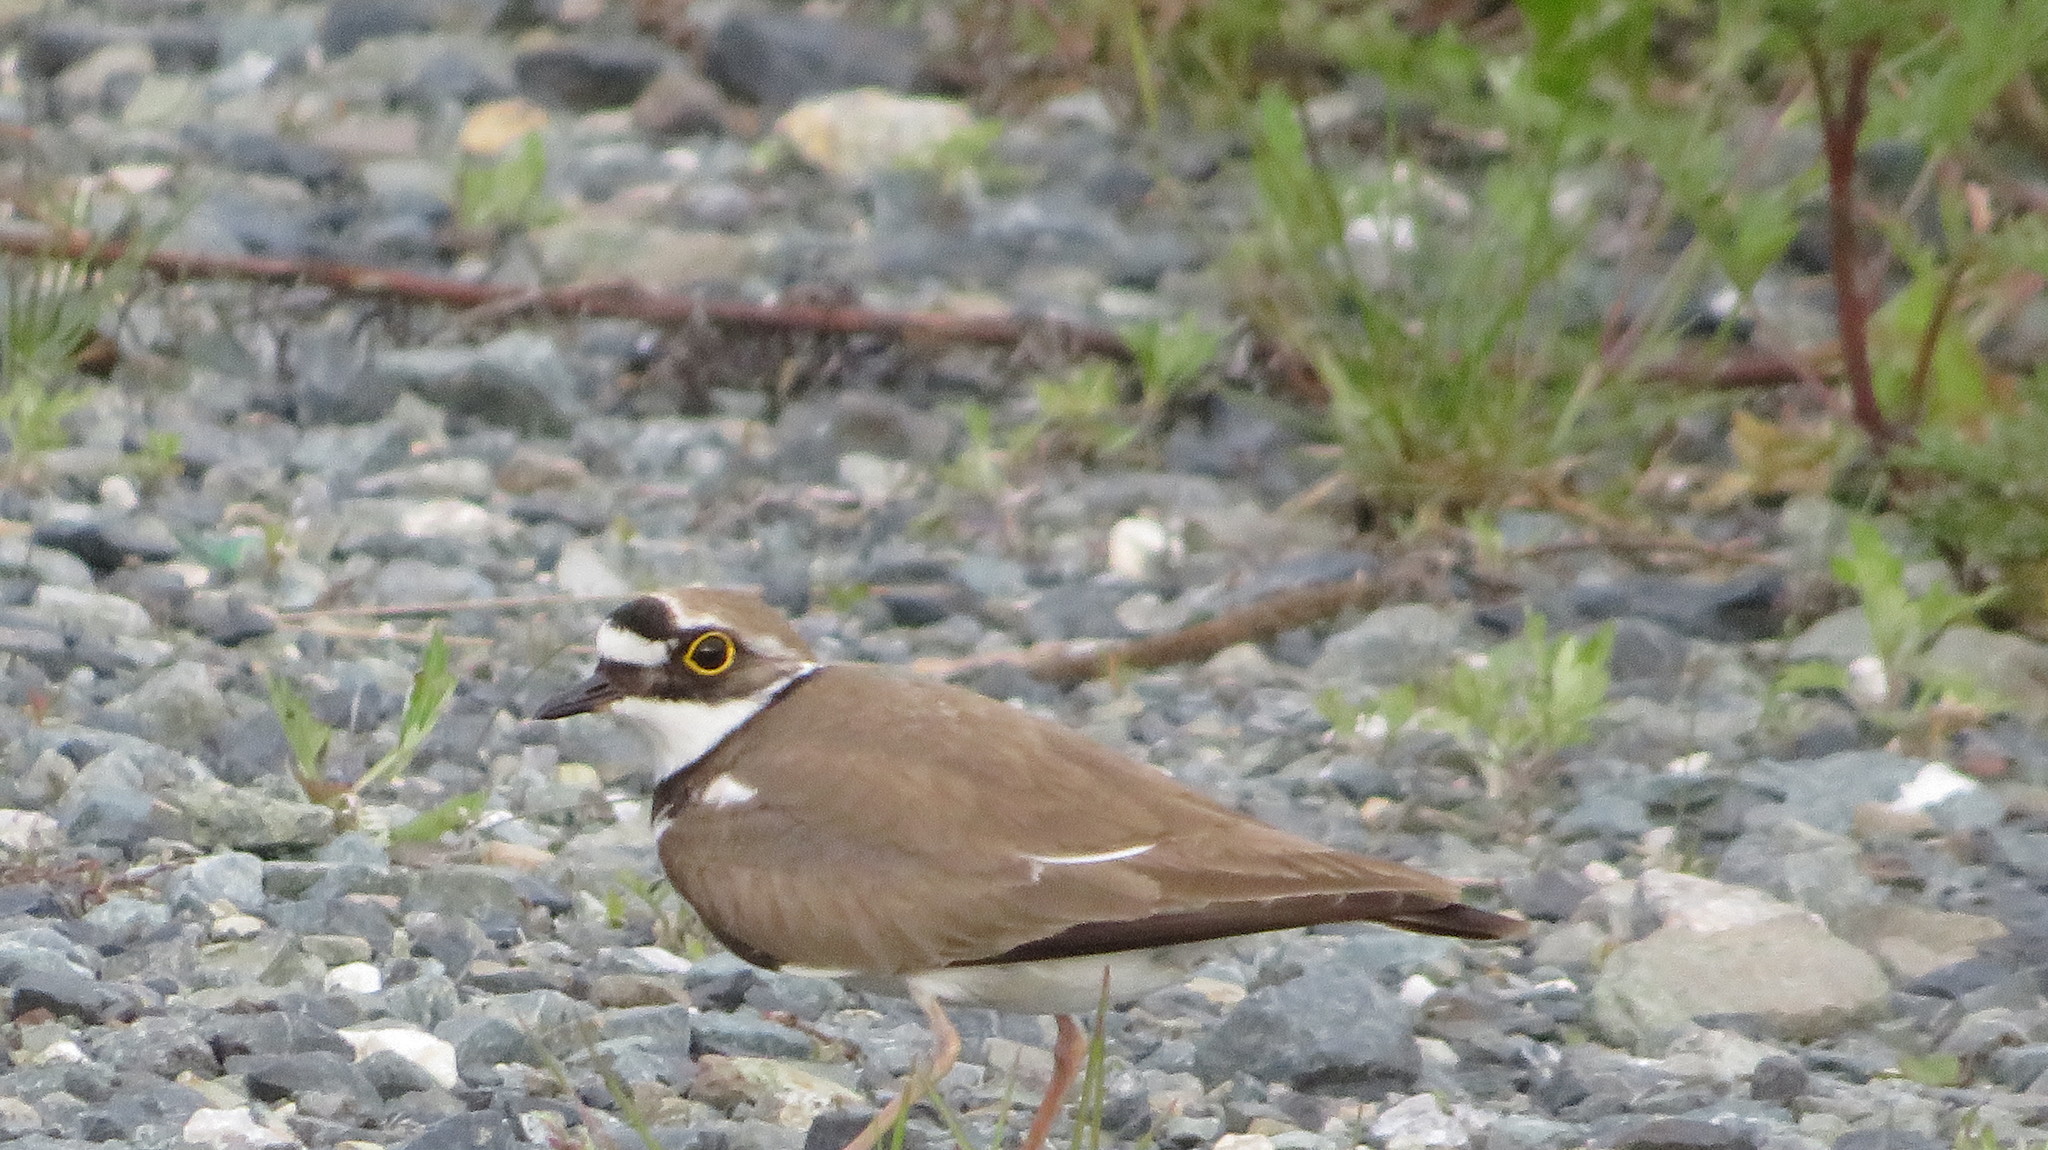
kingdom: Animalia
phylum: Chordata
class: Aves
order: Charadriiformes
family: Charadriidae
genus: Charadrius
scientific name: Charadrius dubius
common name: Little ringed plover
